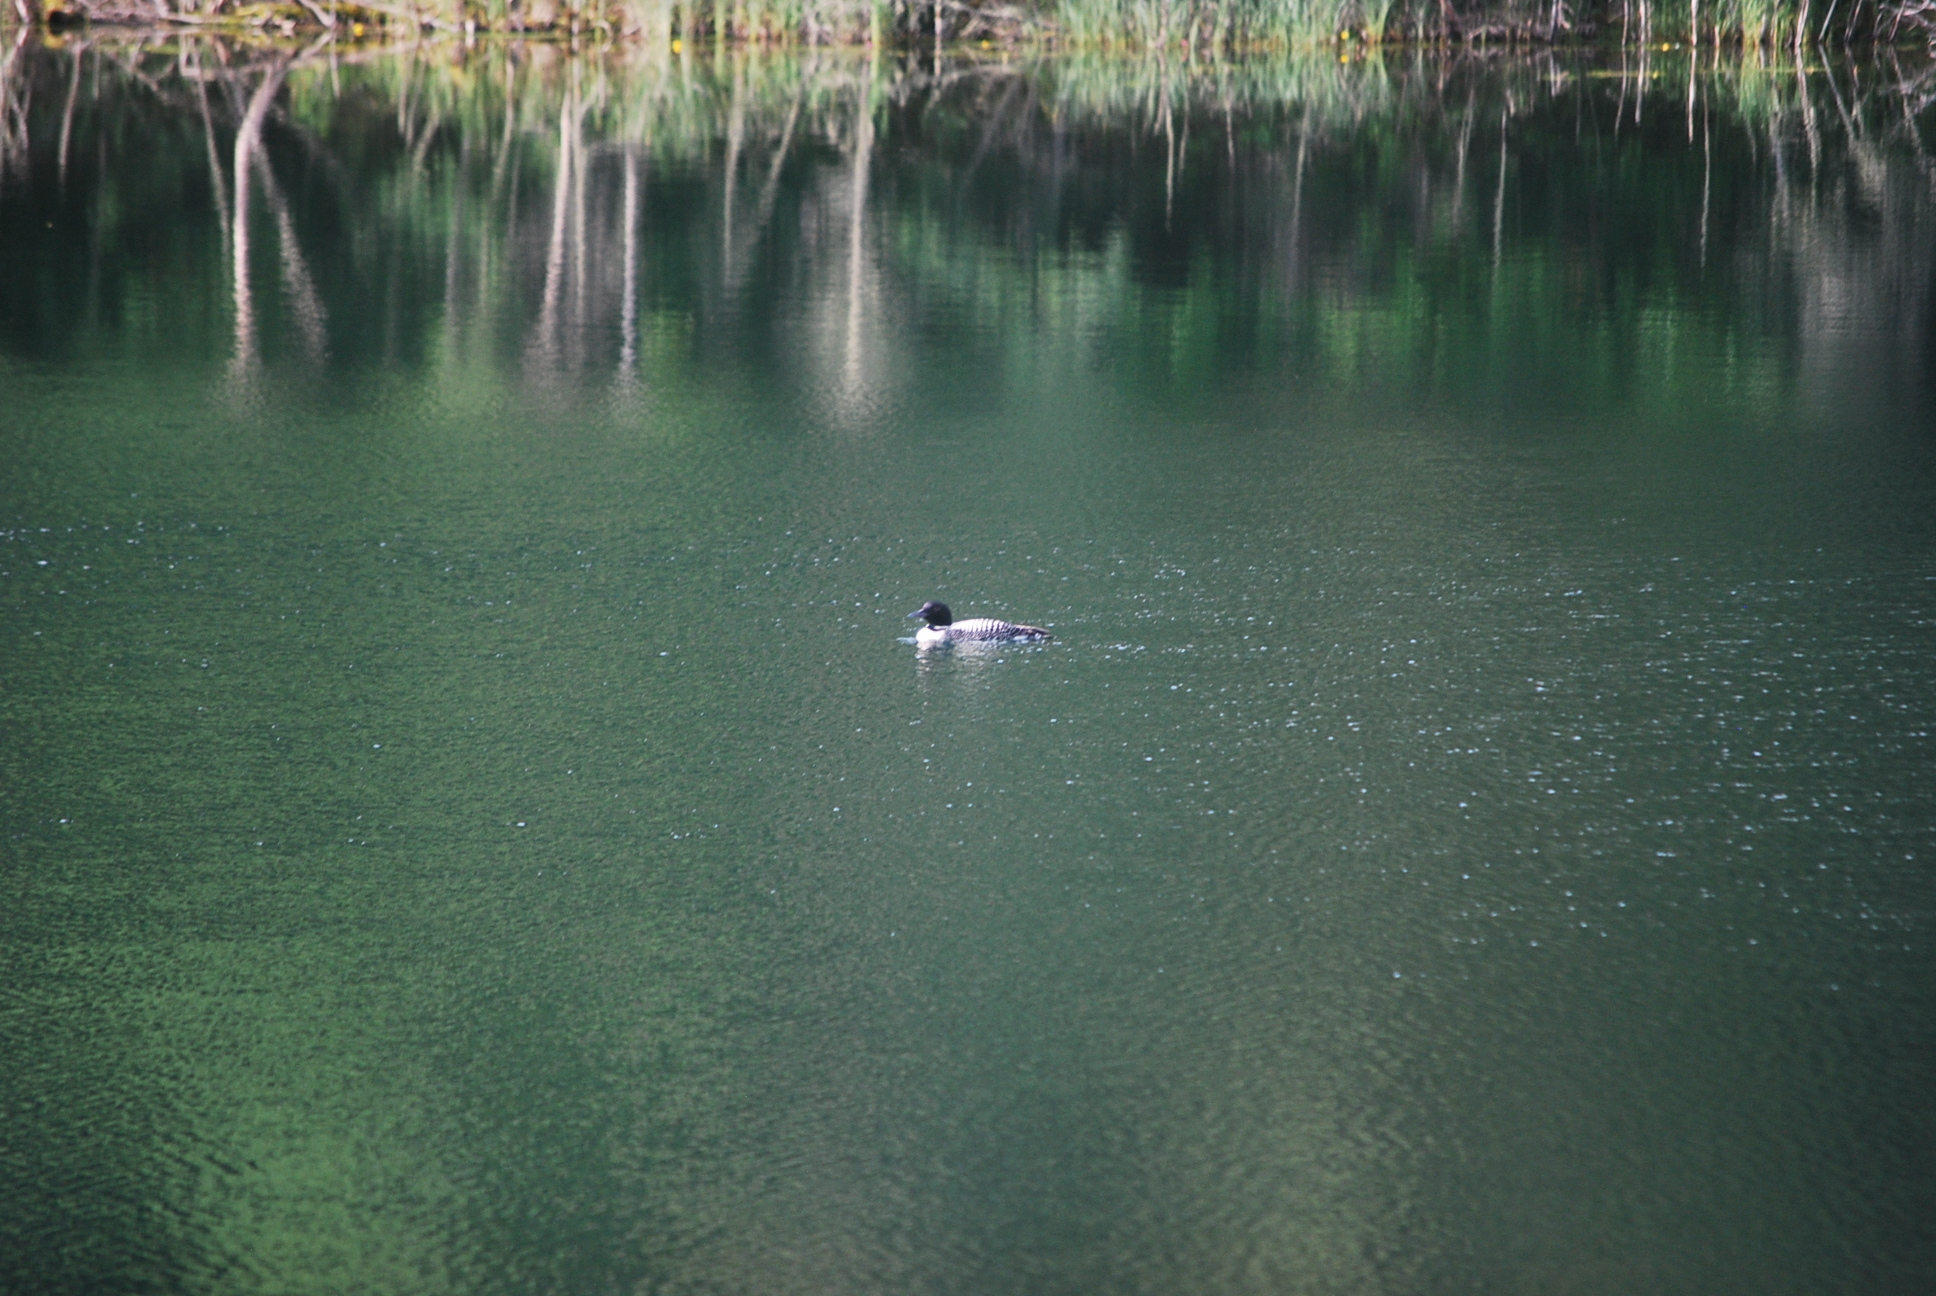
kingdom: Animalia
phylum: Chordata
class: Aves
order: Gaviiformes
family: Gaviidae
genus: Gavia
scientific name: Gavia immer
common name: Common loon
